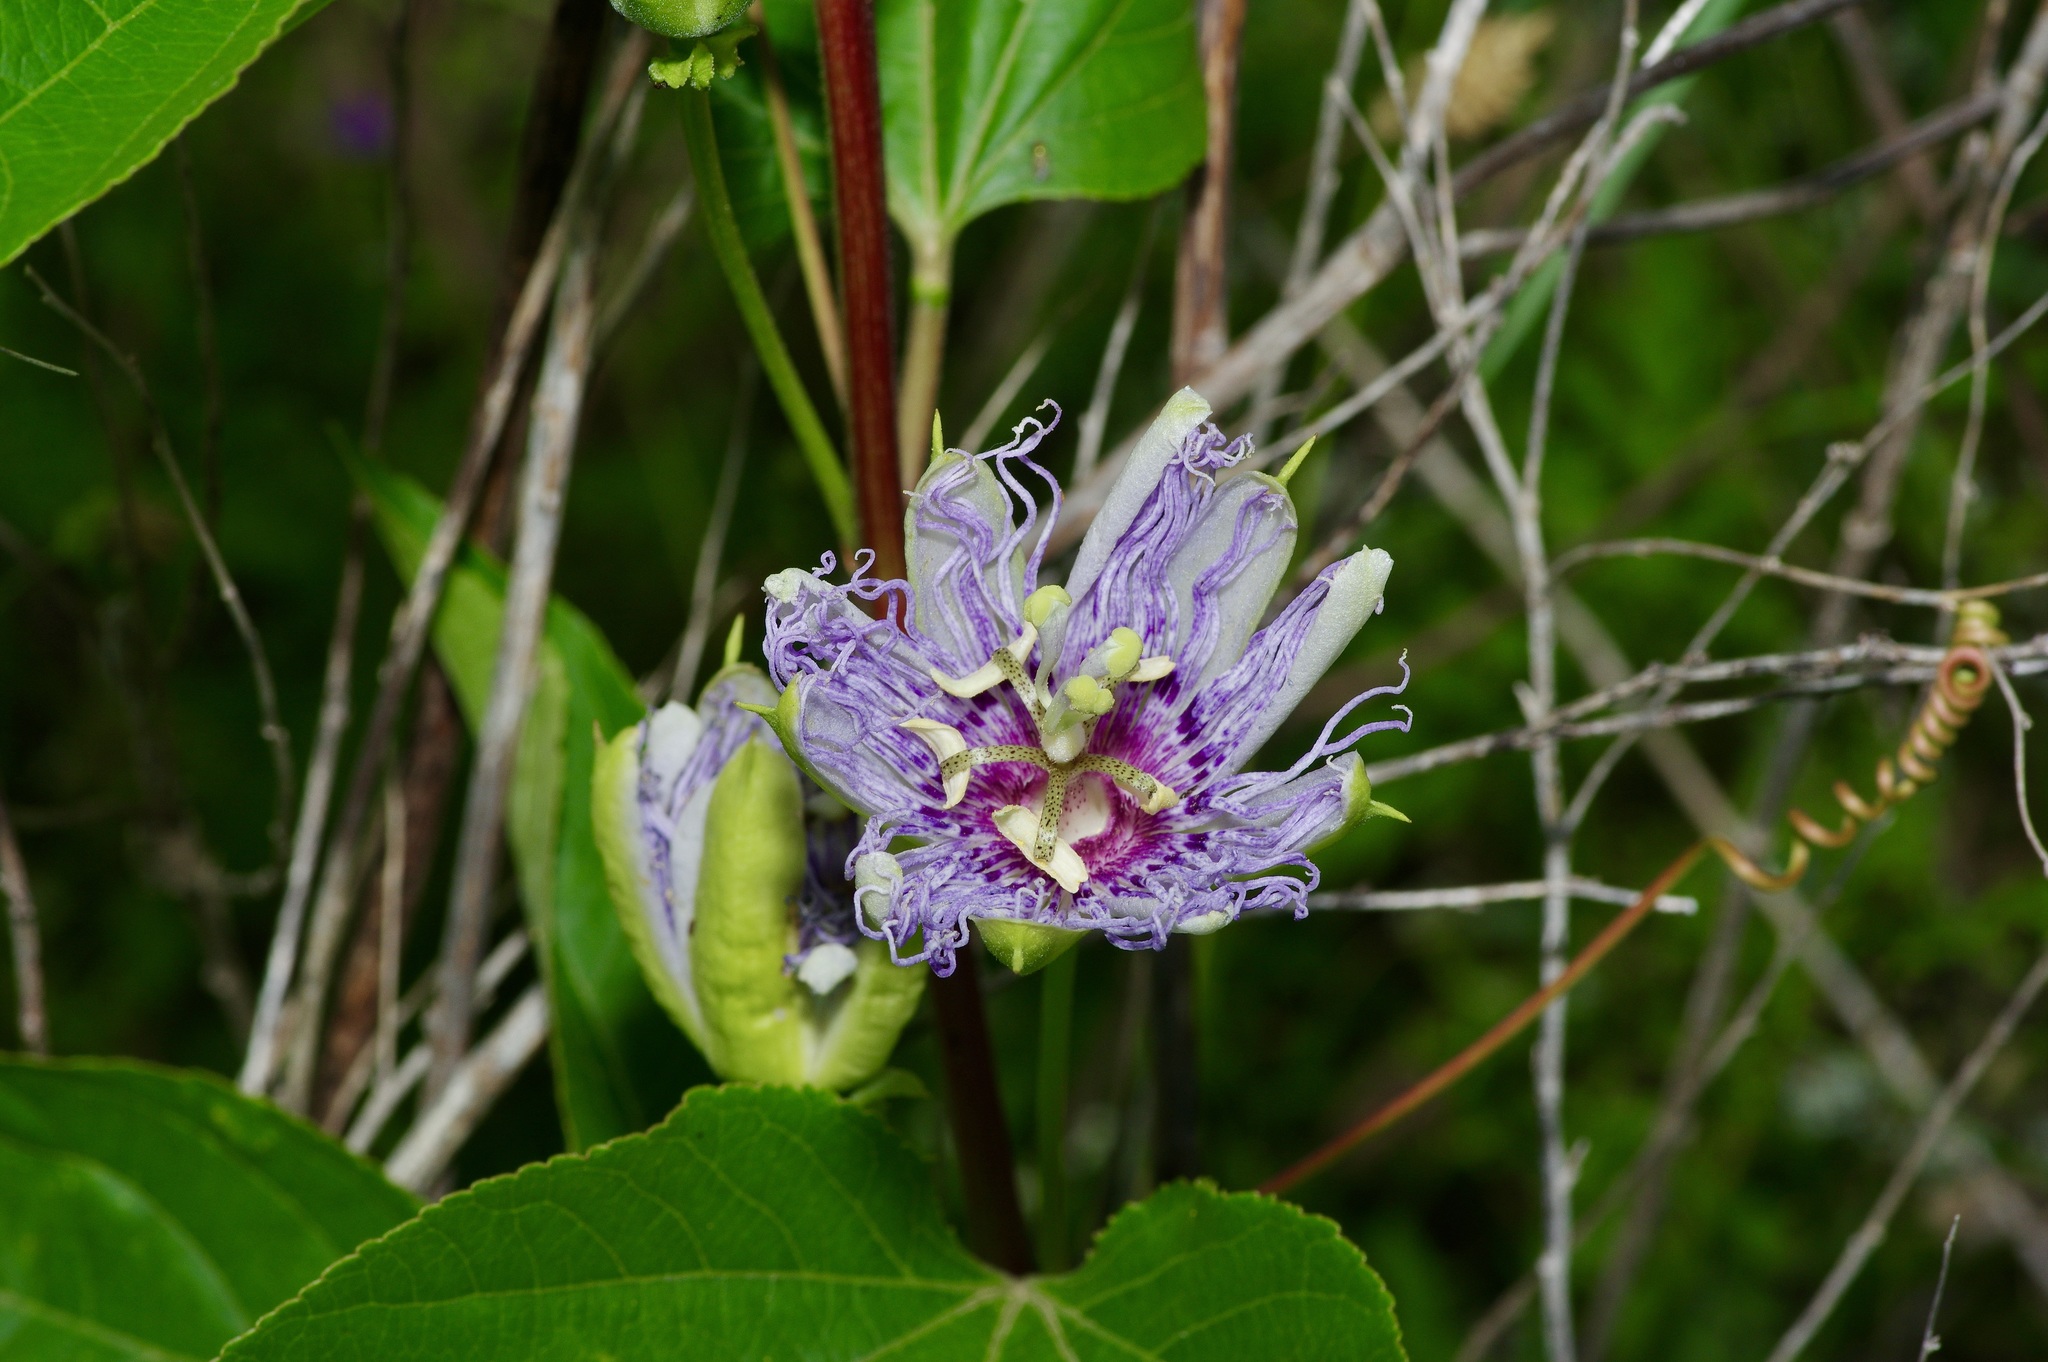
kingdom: Plantae
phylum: Tracheophyta
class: Magnoliopsida
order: Malpighiales
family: Passifloraceae
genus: Passiflora
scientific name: Passiflora incarnata
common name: Apricot-vine
